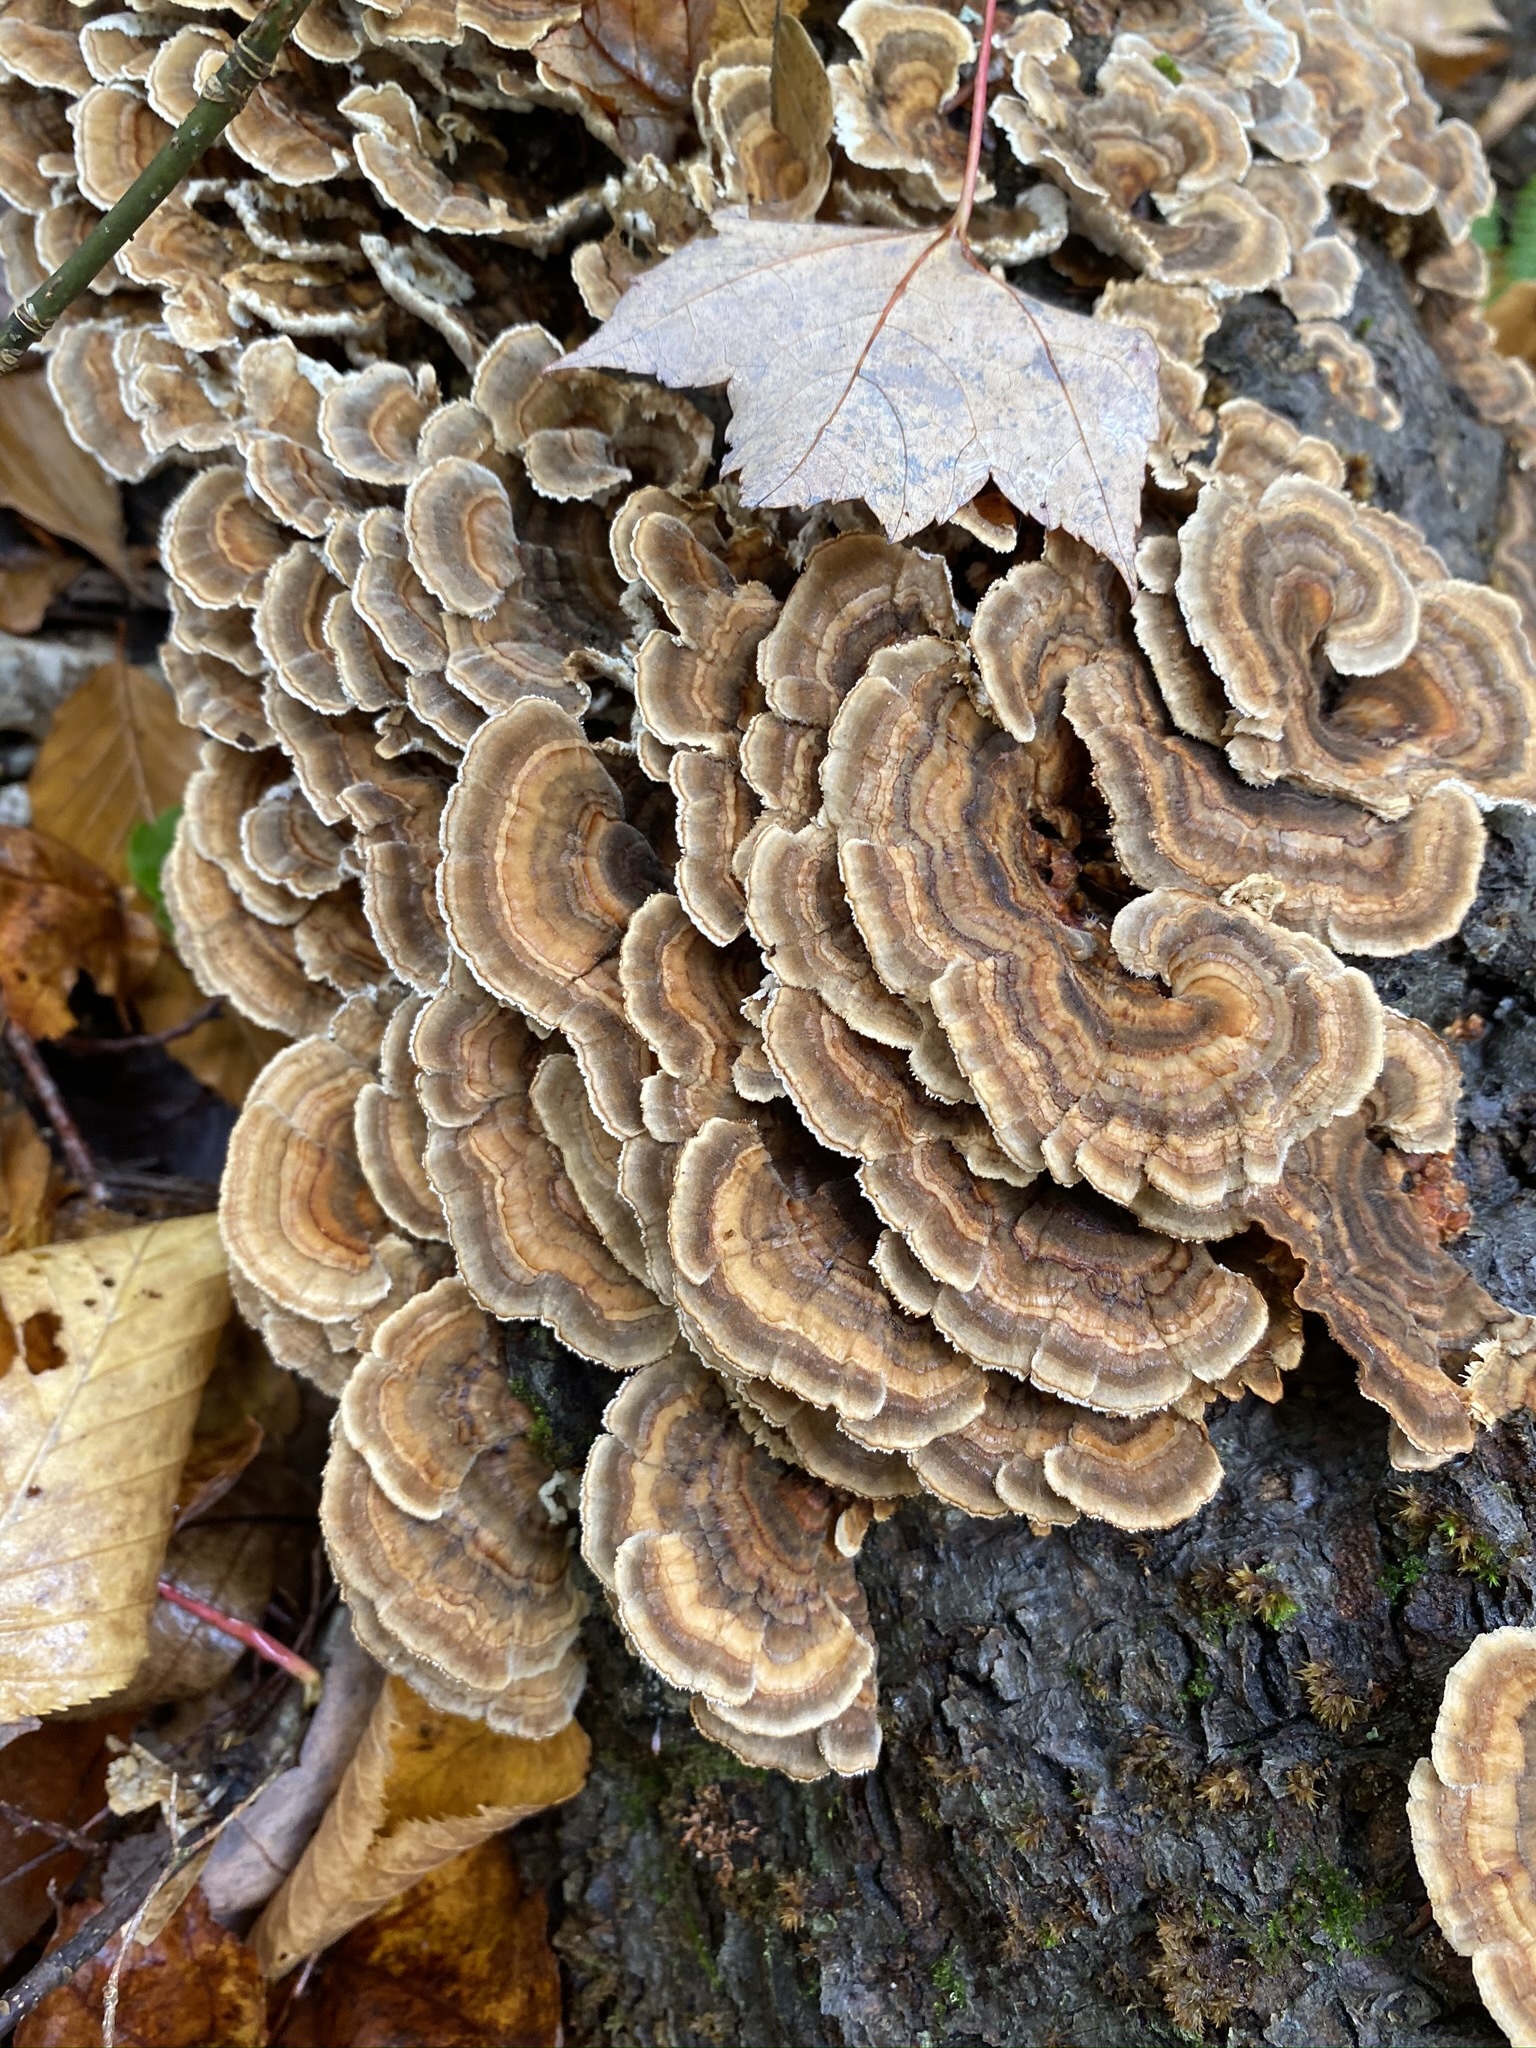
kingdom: Fungi
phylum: Basidiomycota
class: Agaricomycetes
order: Polyporales
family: Polyporaceae
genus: Trametes
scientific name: Trametes versicolor
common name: Turkeytail
